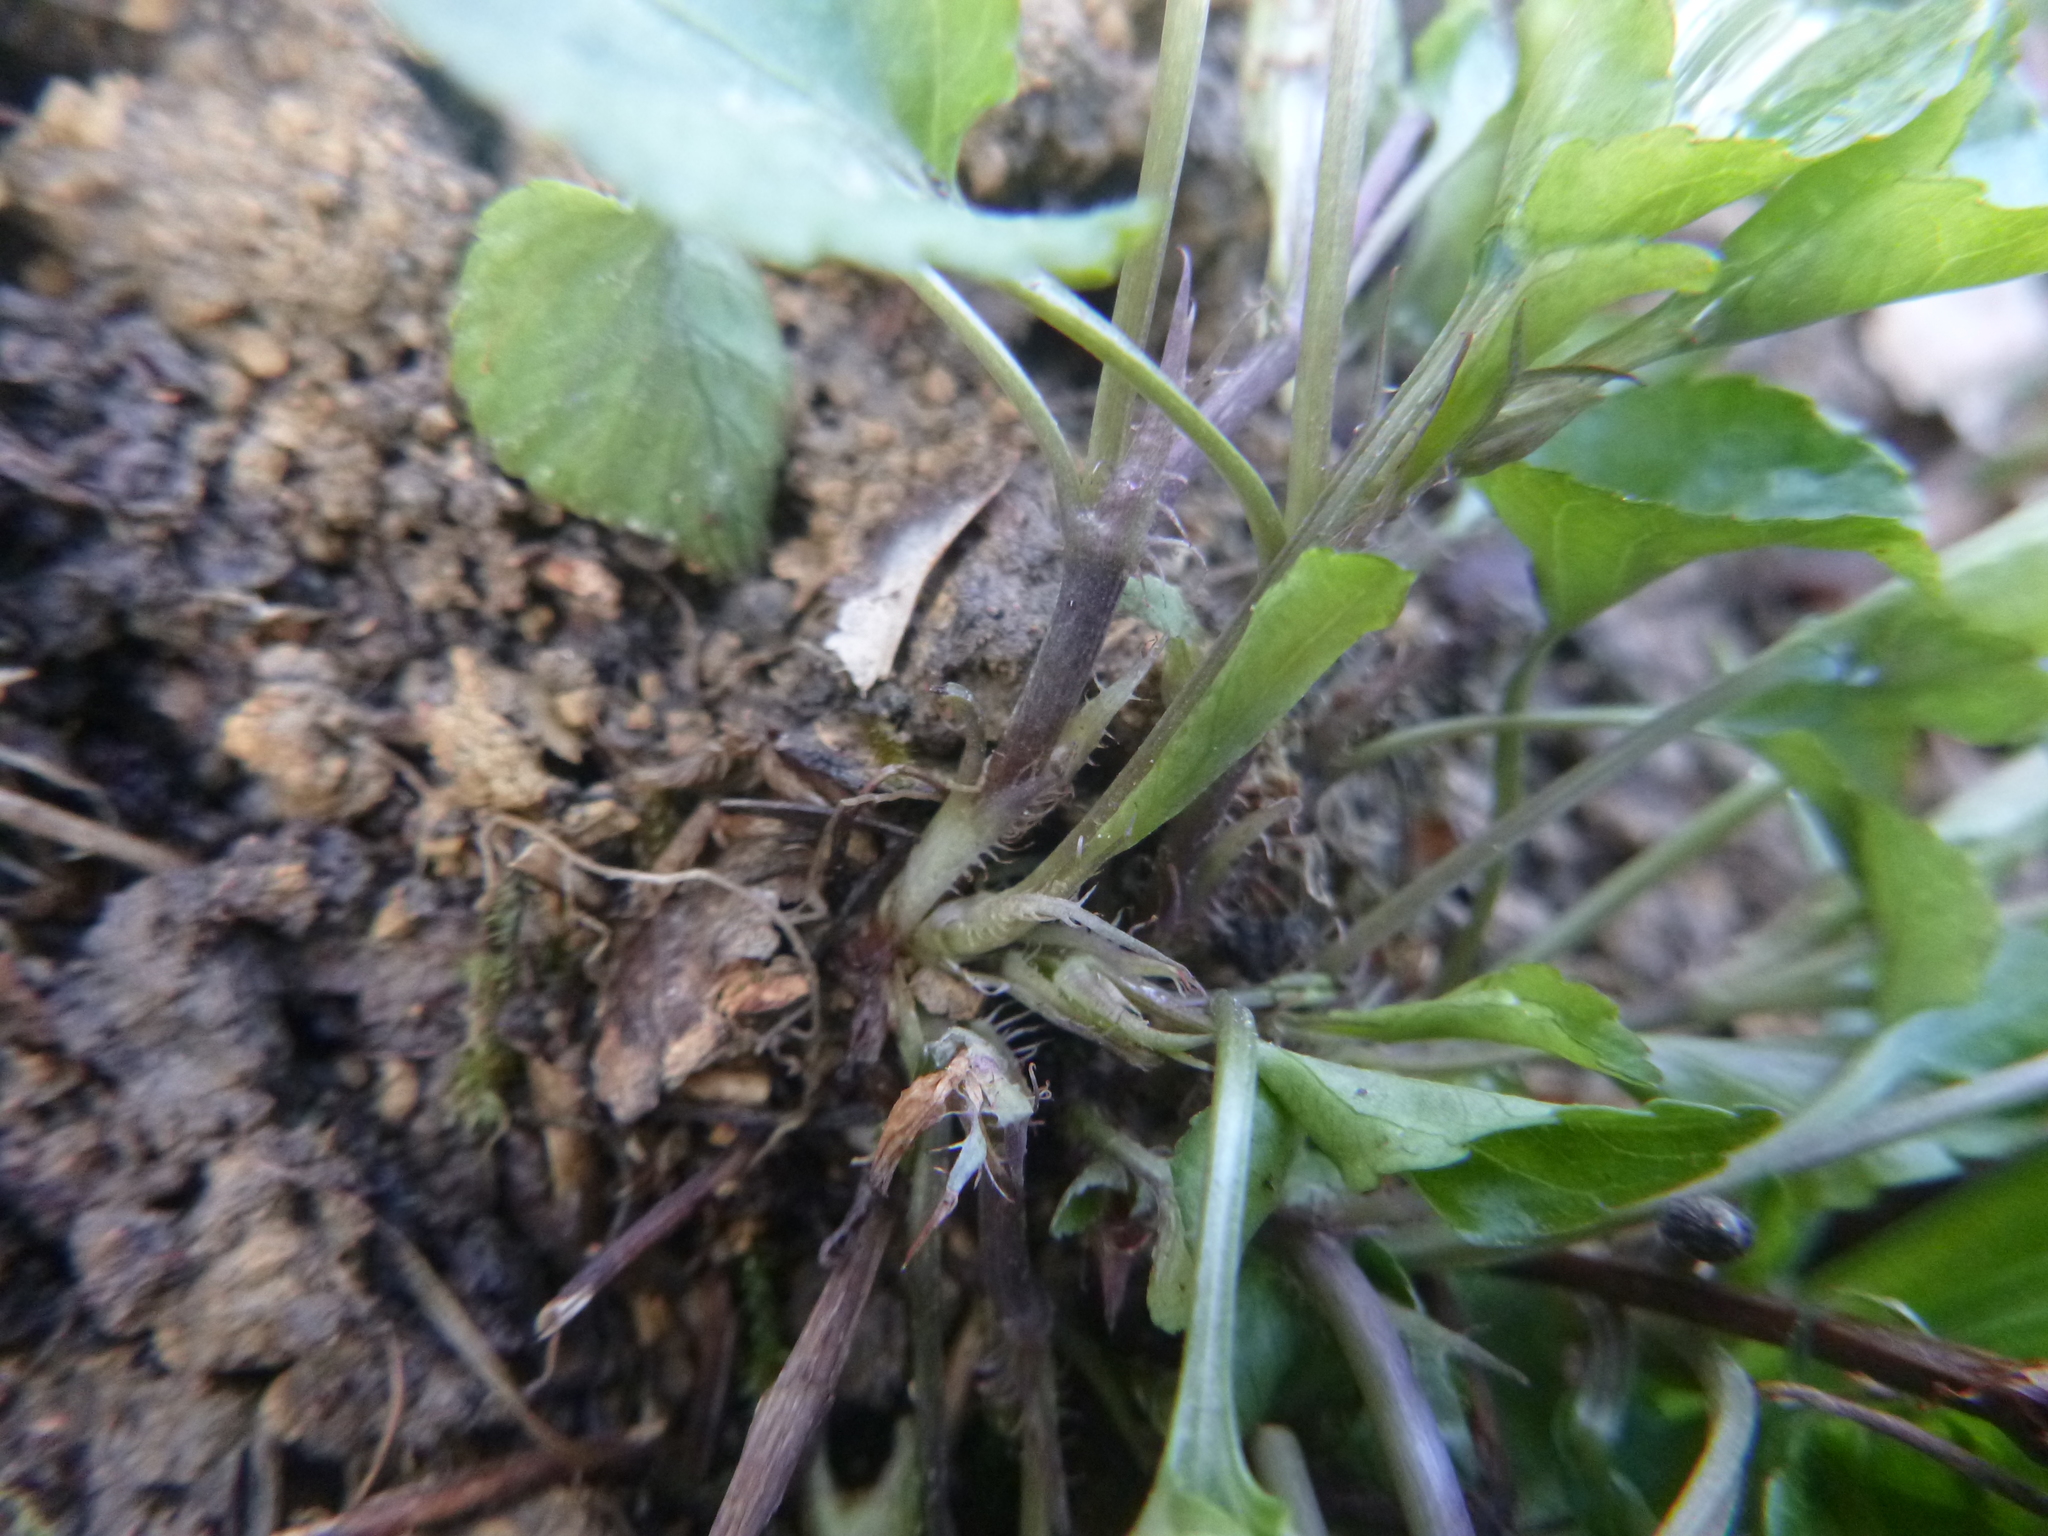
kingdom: Plantae
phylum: Tracheophyta
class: Magnoliopsida
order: Malpighiales
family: Violaceae
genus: Viola
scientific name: Viola reichenbachiana
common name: Early dog-violet
